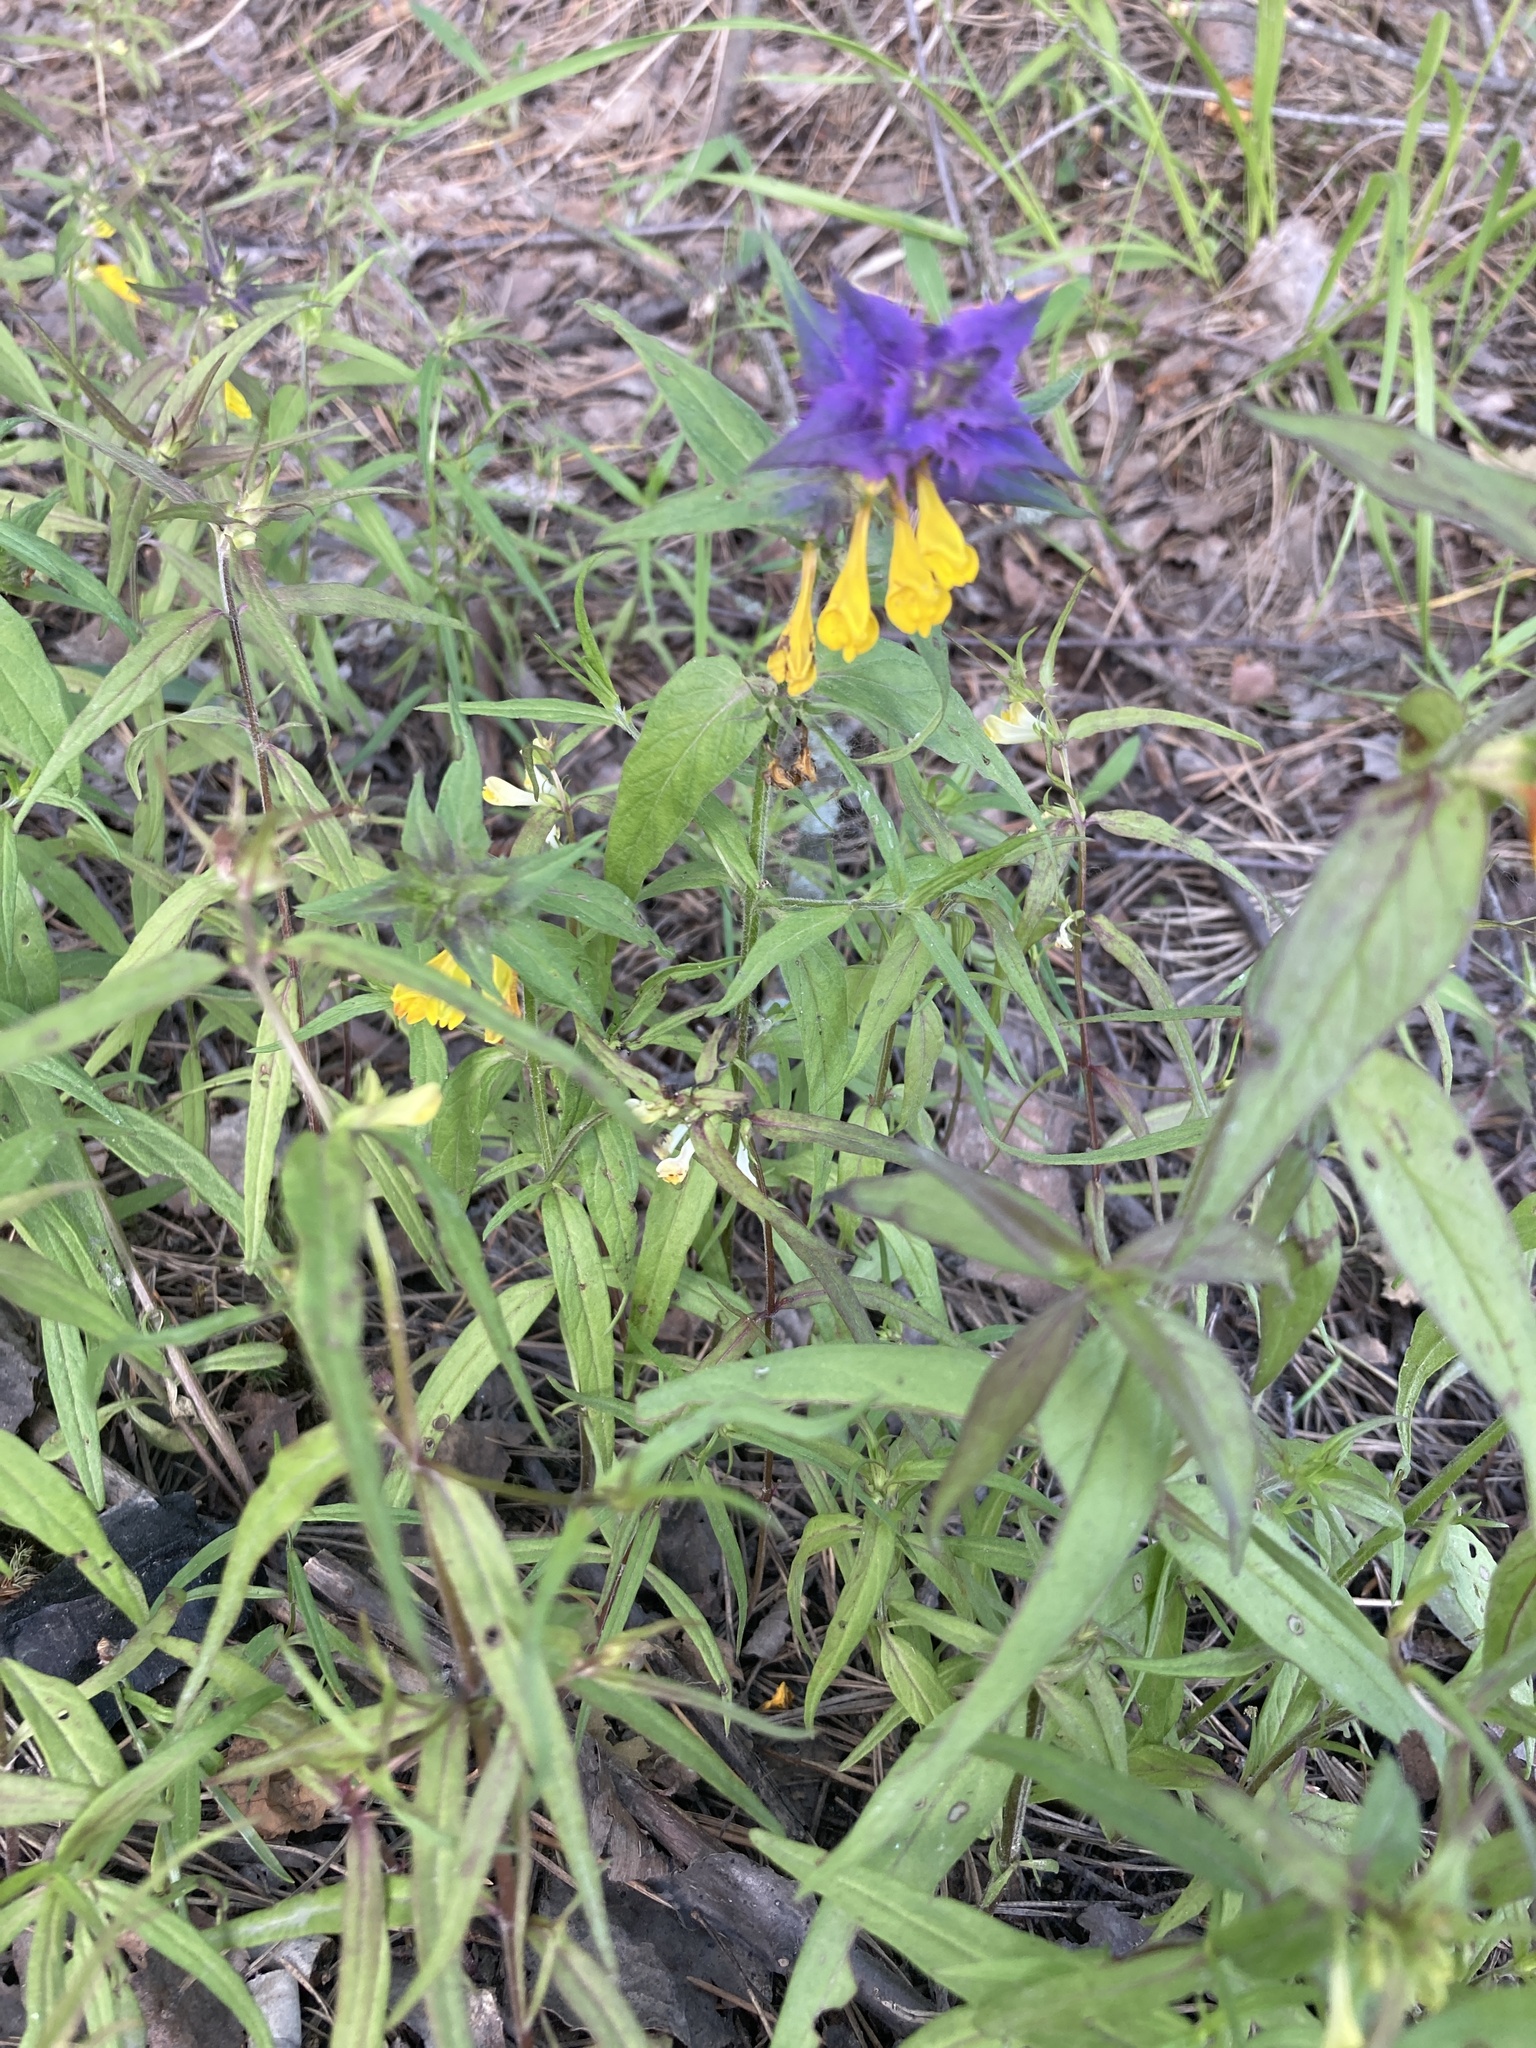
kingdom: Plantae
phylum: Tracheophyta
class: Magnoliopsida
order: Lamiales
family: Orobanchaceae
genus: Melampyrum
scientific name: Melampyrum nemorosum
